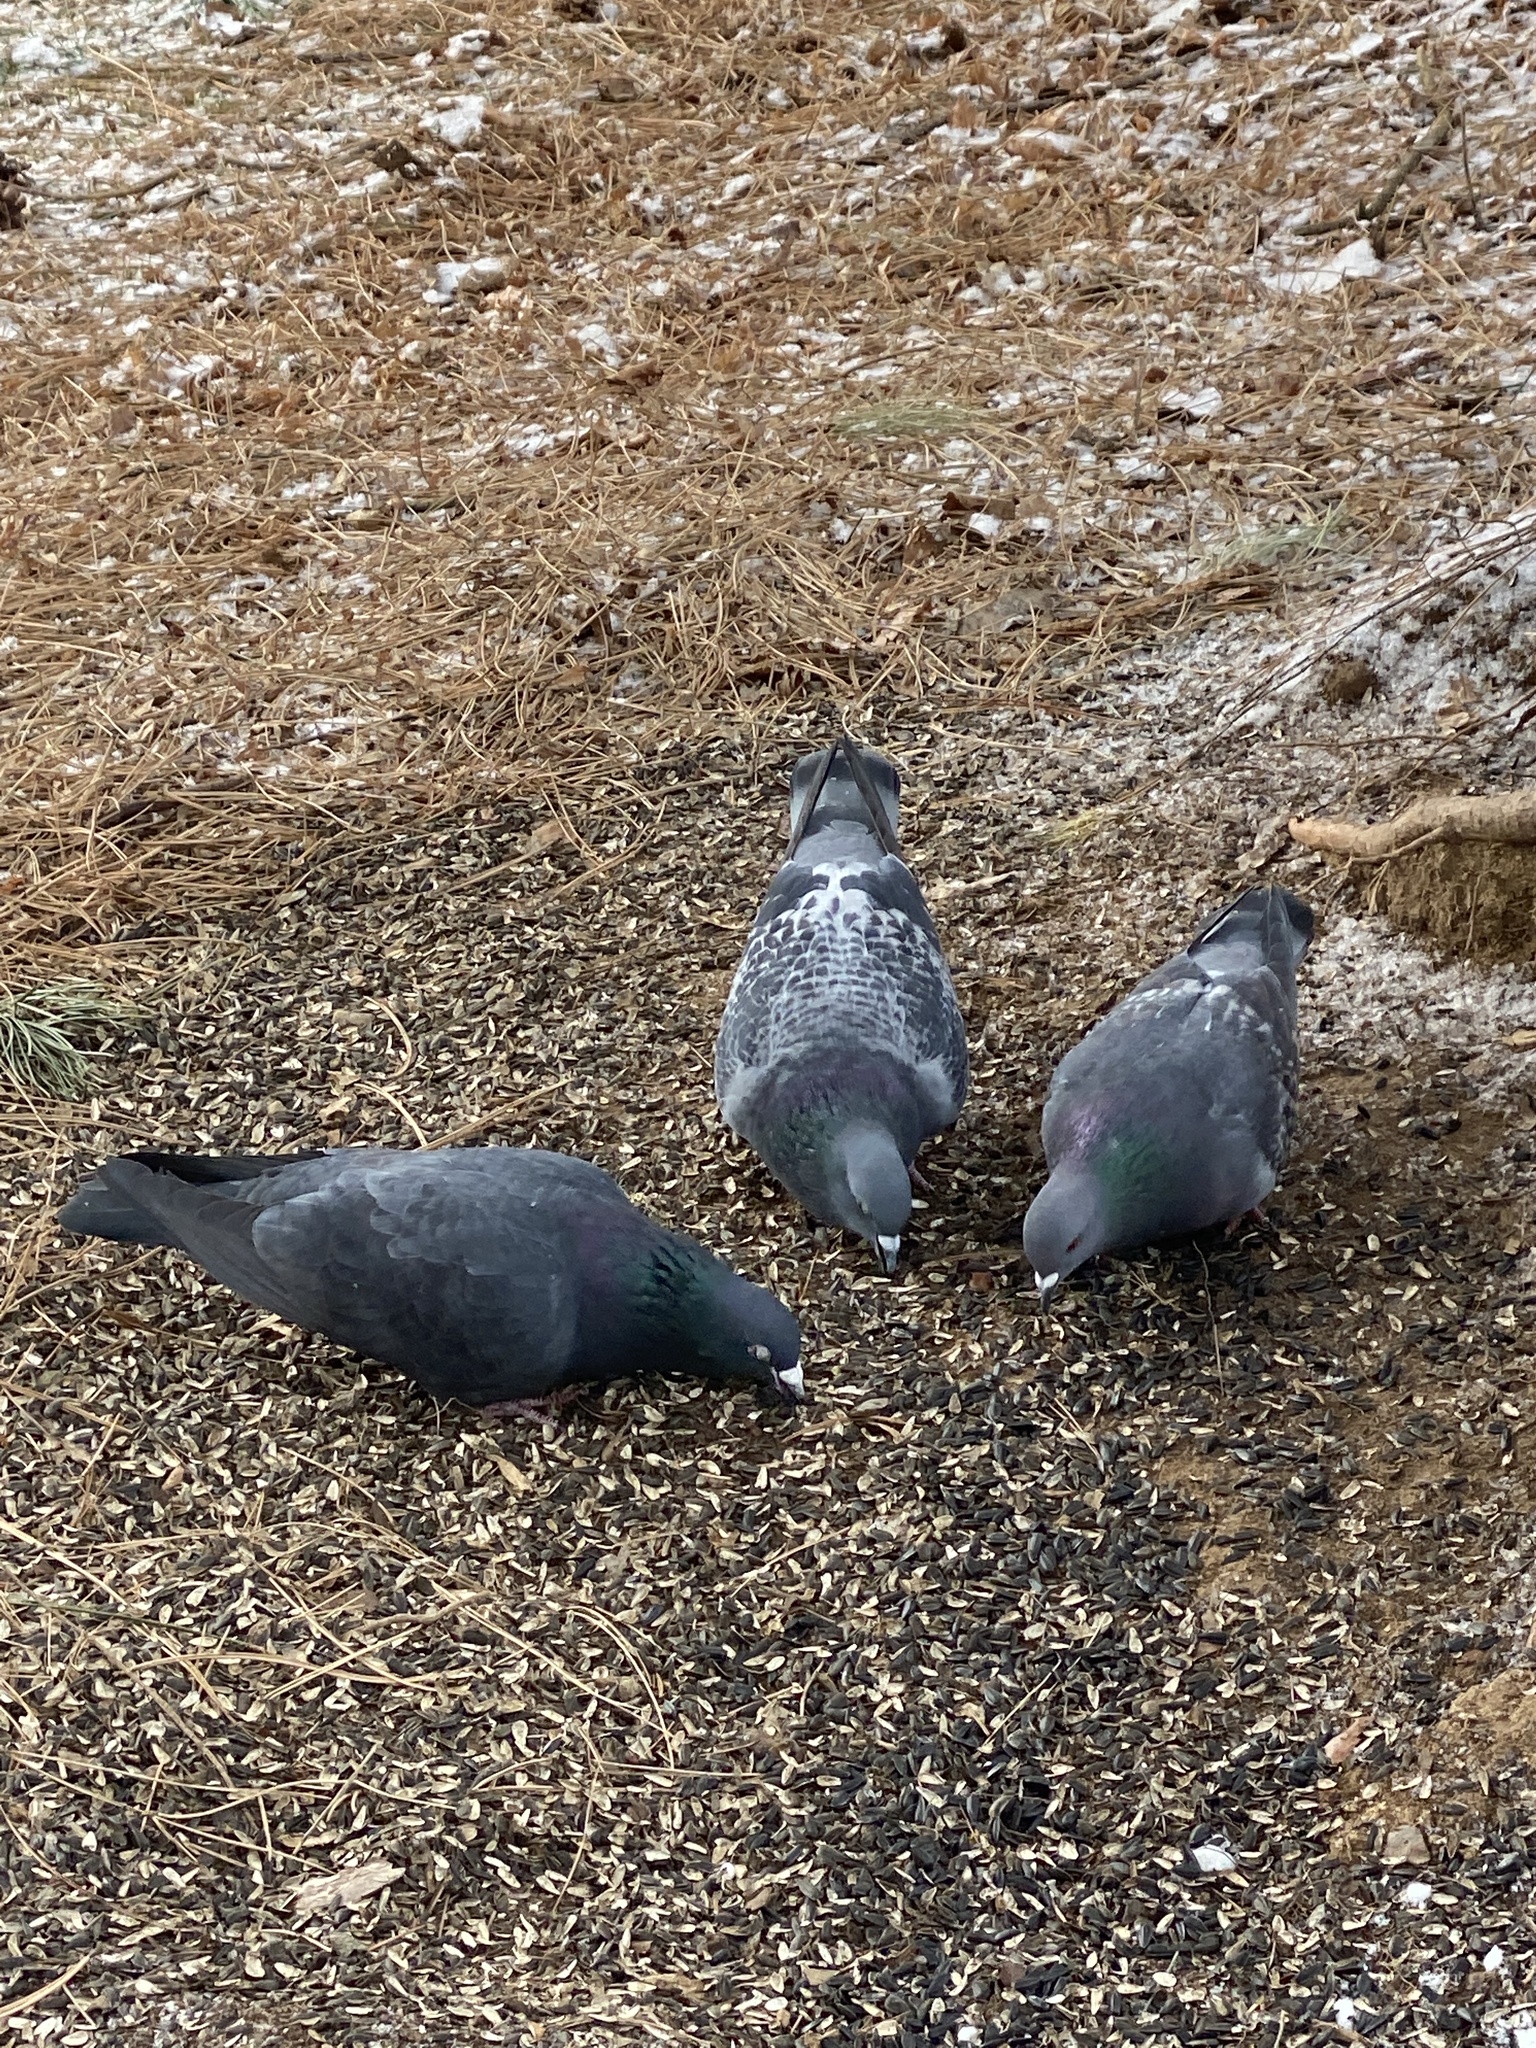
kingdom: Animalia
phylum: Chordata
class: Aves
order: Columbiformes
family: Columbidae
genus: Columba
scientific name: Columba livia
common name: Rock pigeon
